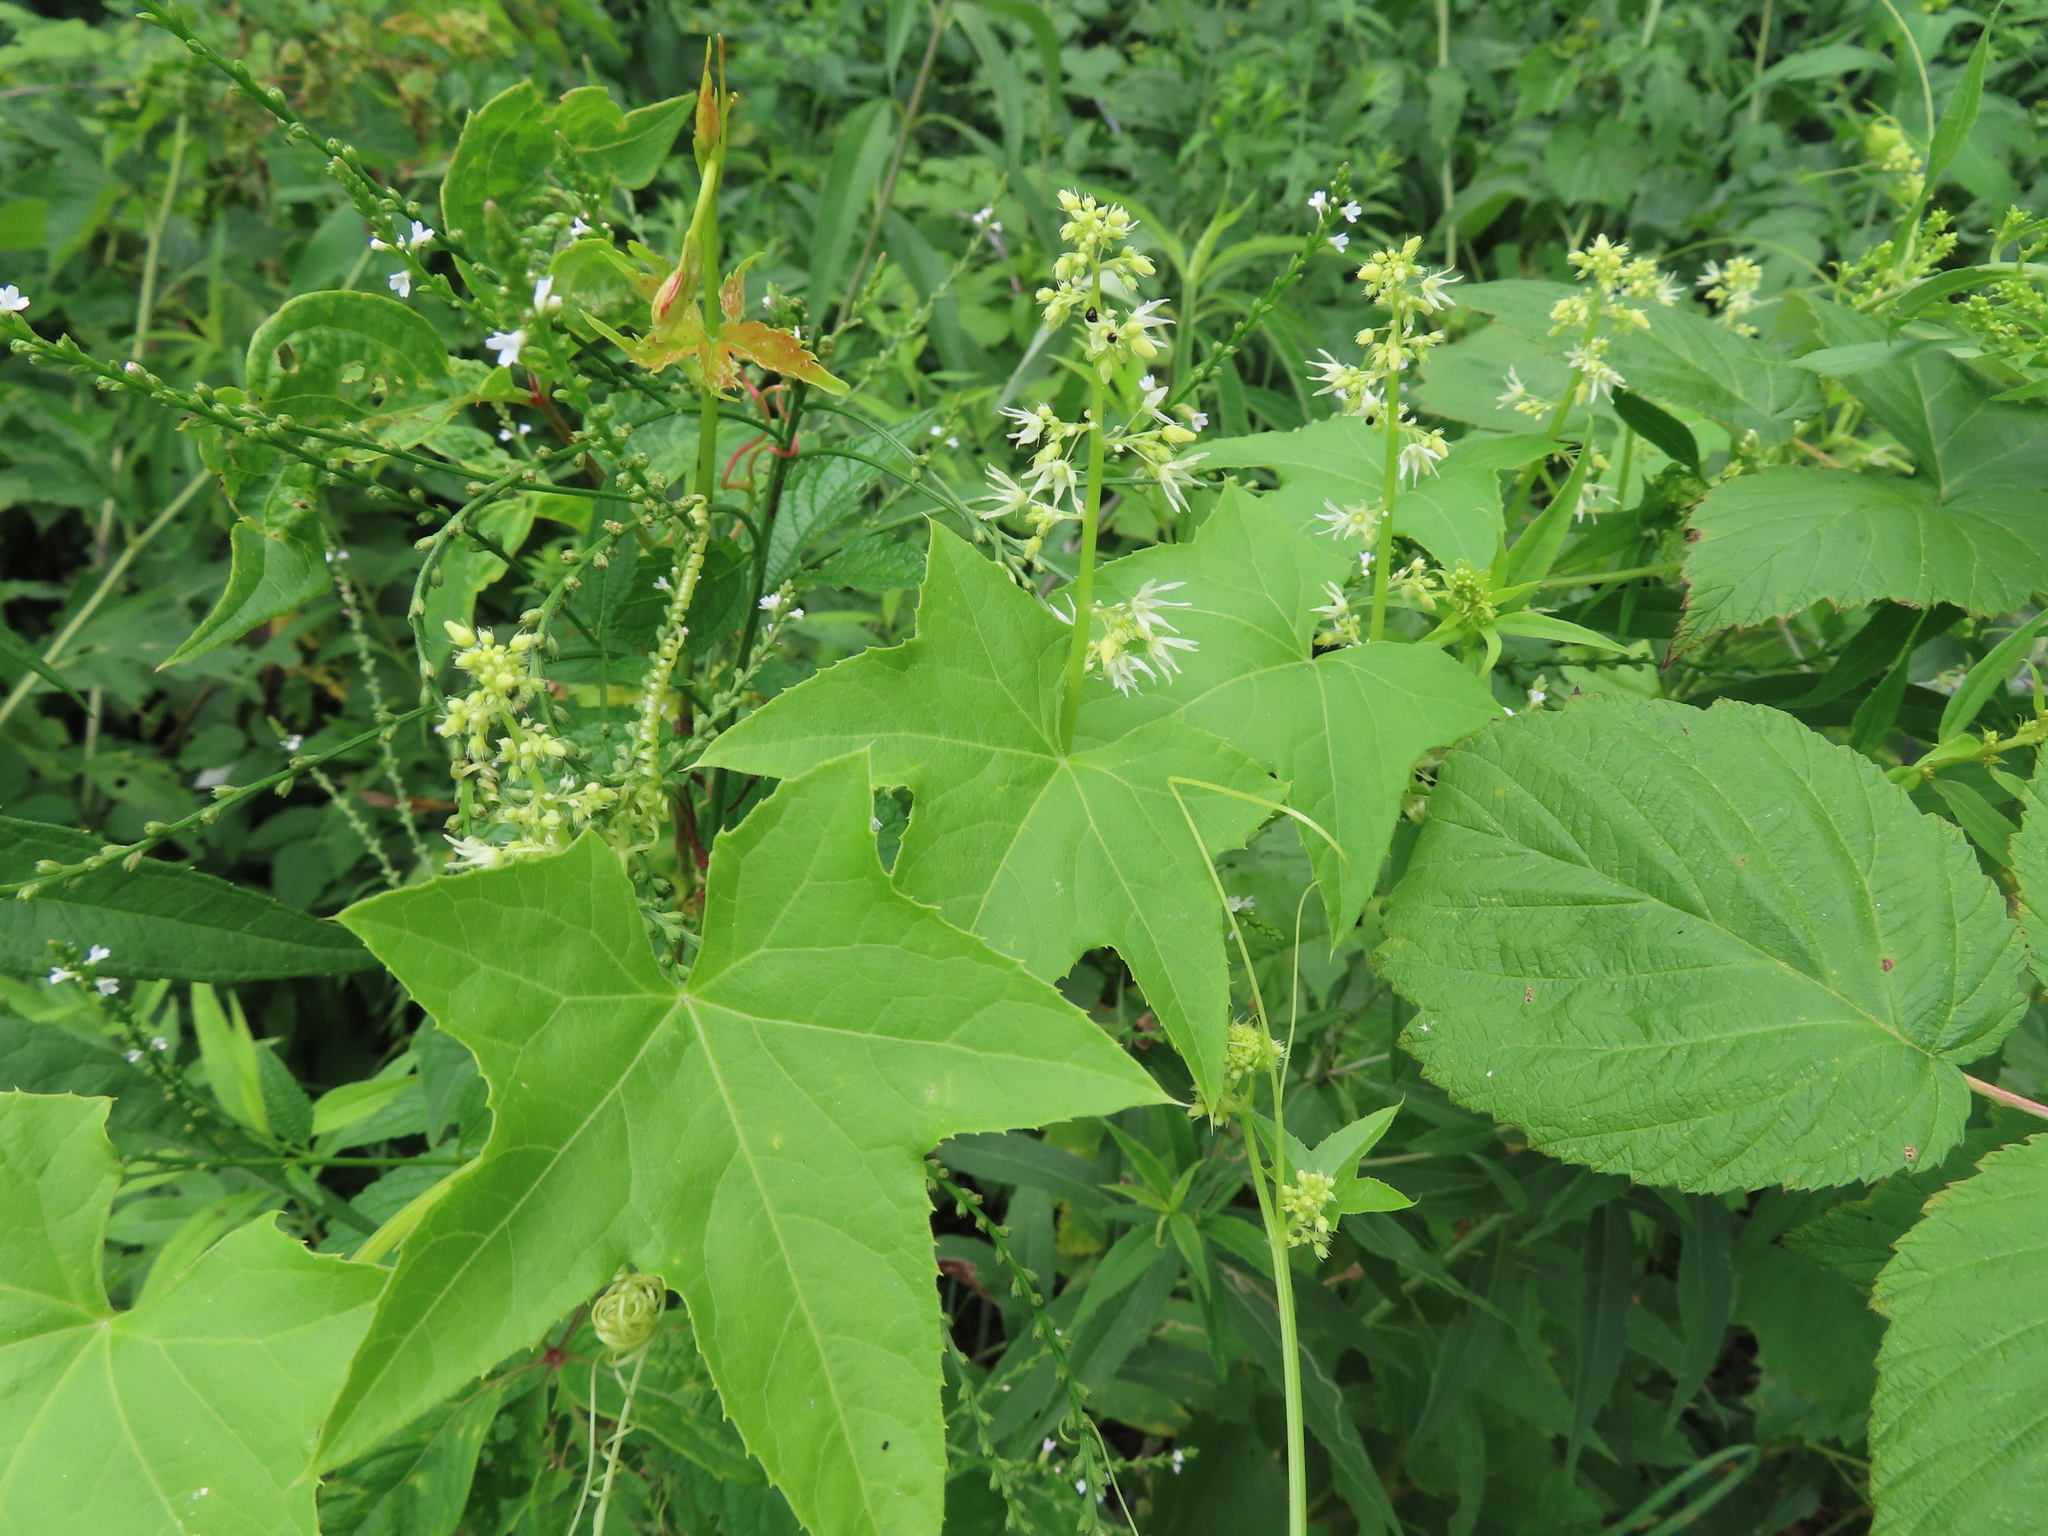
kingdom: Plantae
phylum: Tracheophyta
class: Magnoliopsida
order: Cucurbitales
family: Cucurbitaceae
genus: Echinocystis
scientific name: Echinocystis lobata
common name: Wild cucumber
